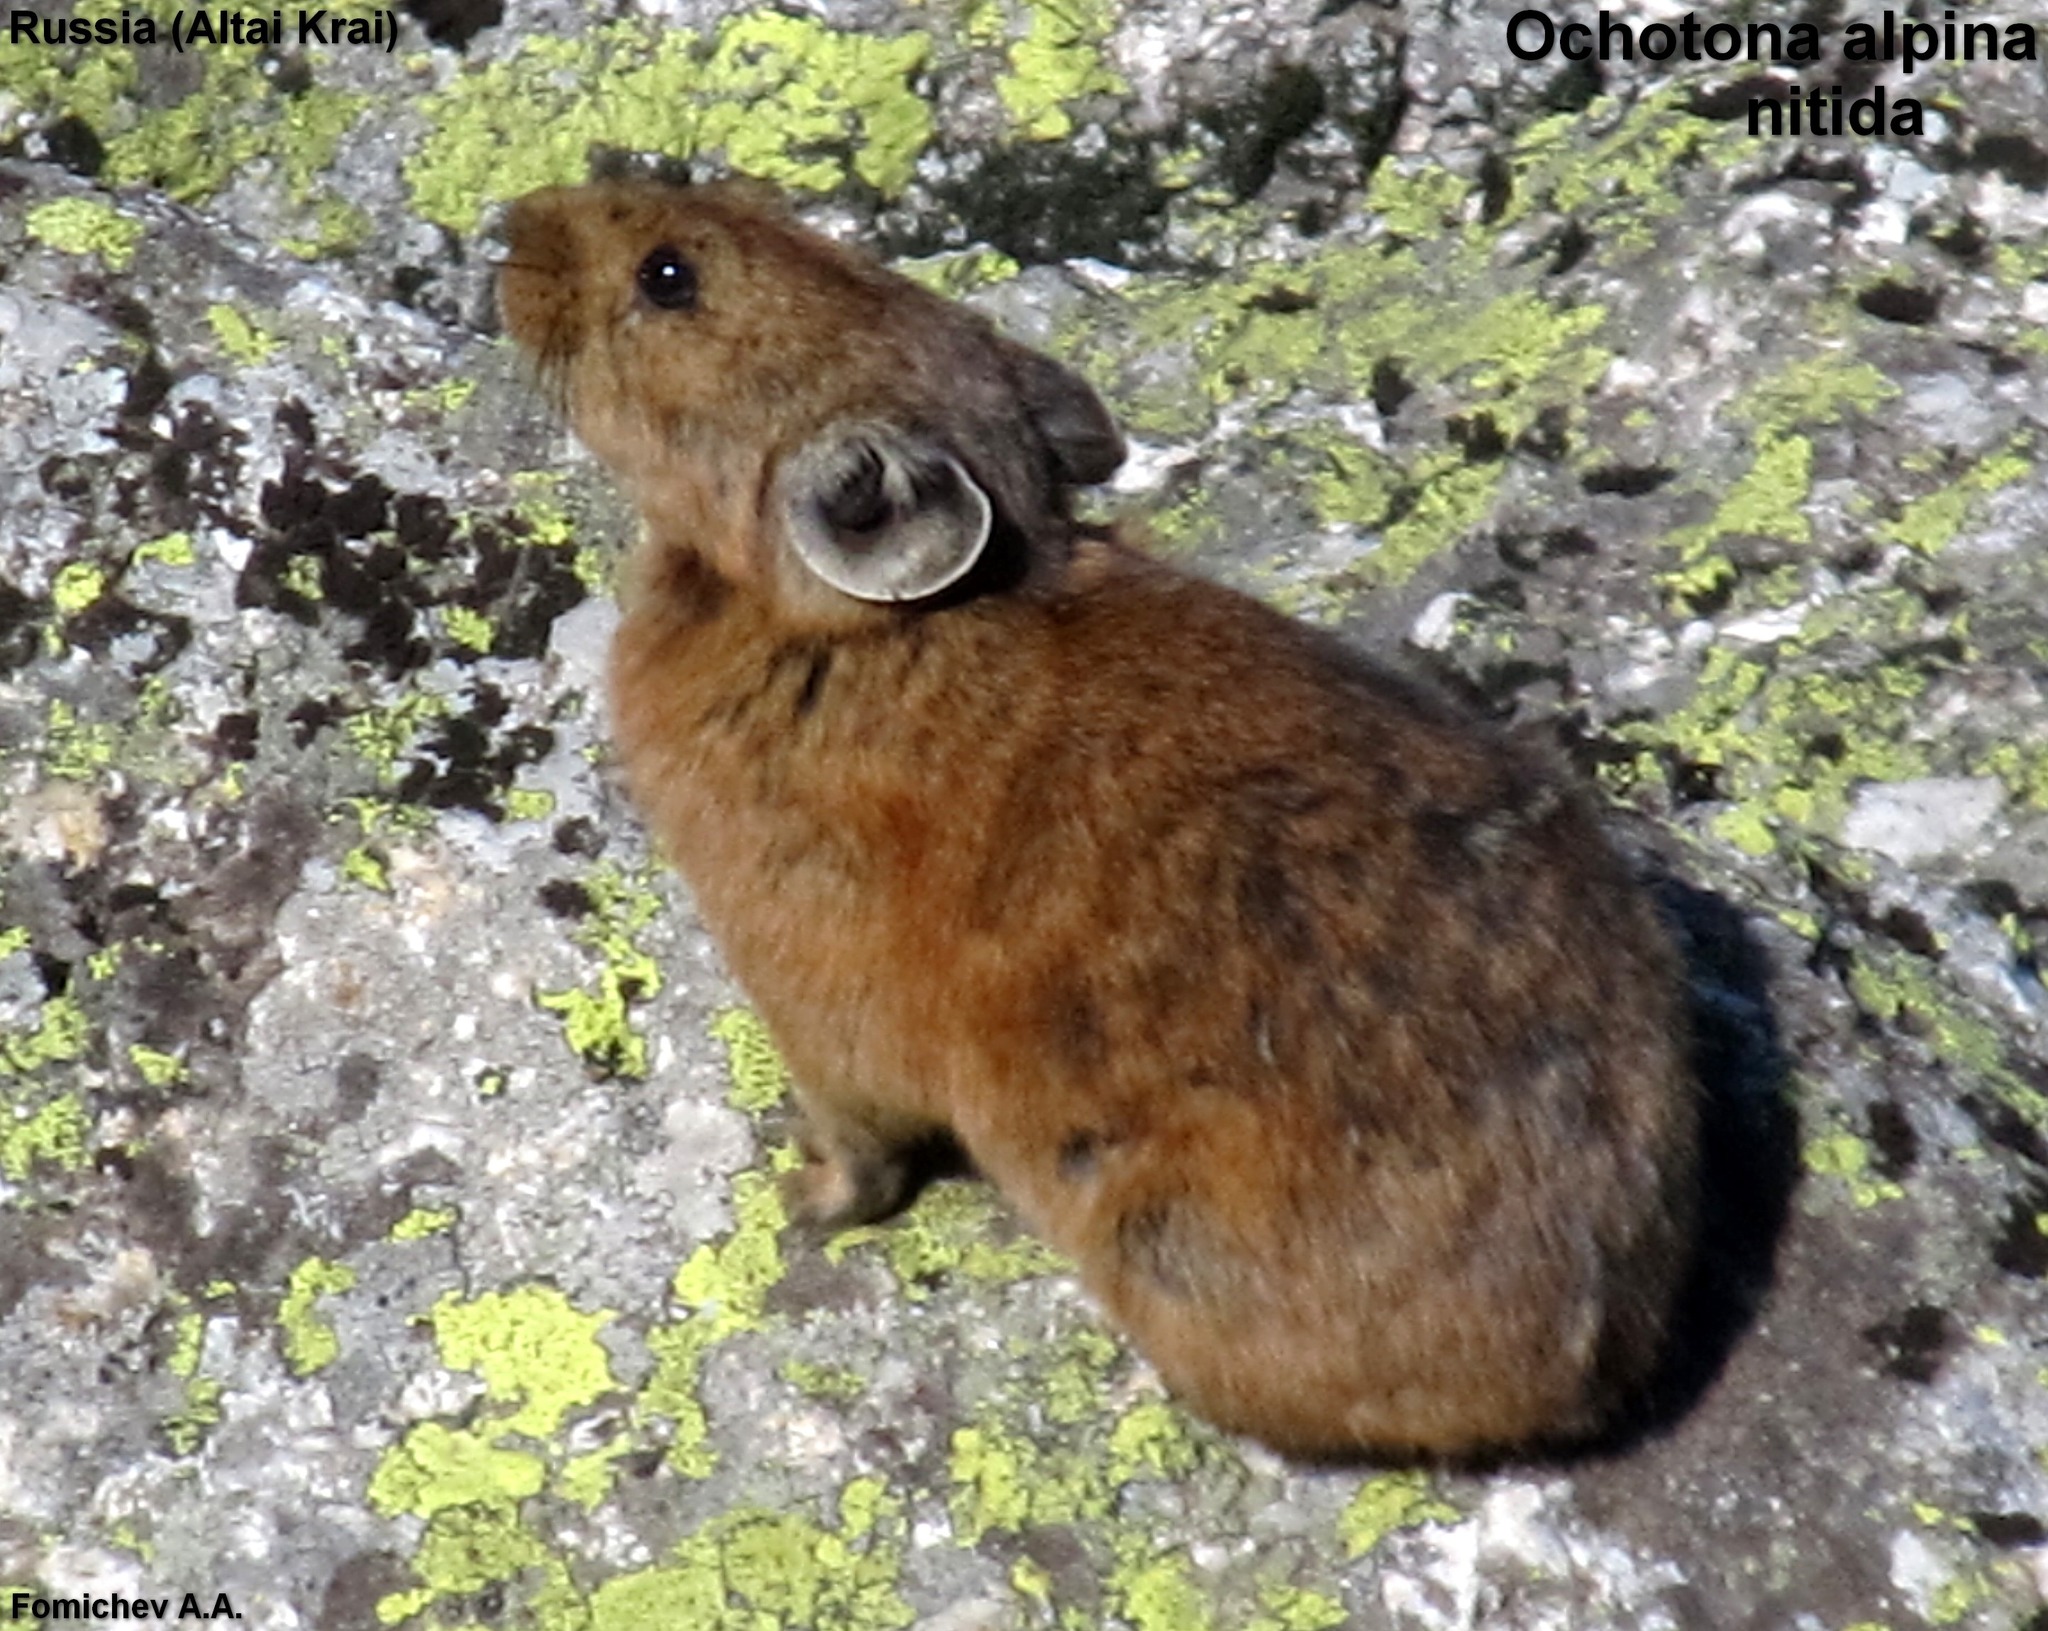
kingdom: Animalia
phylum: Chordata
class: Mammalia
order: Lagomorpha
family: Ochotonidae
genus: Ochotona
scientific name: Ochotona alpina
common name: Alpine pika
